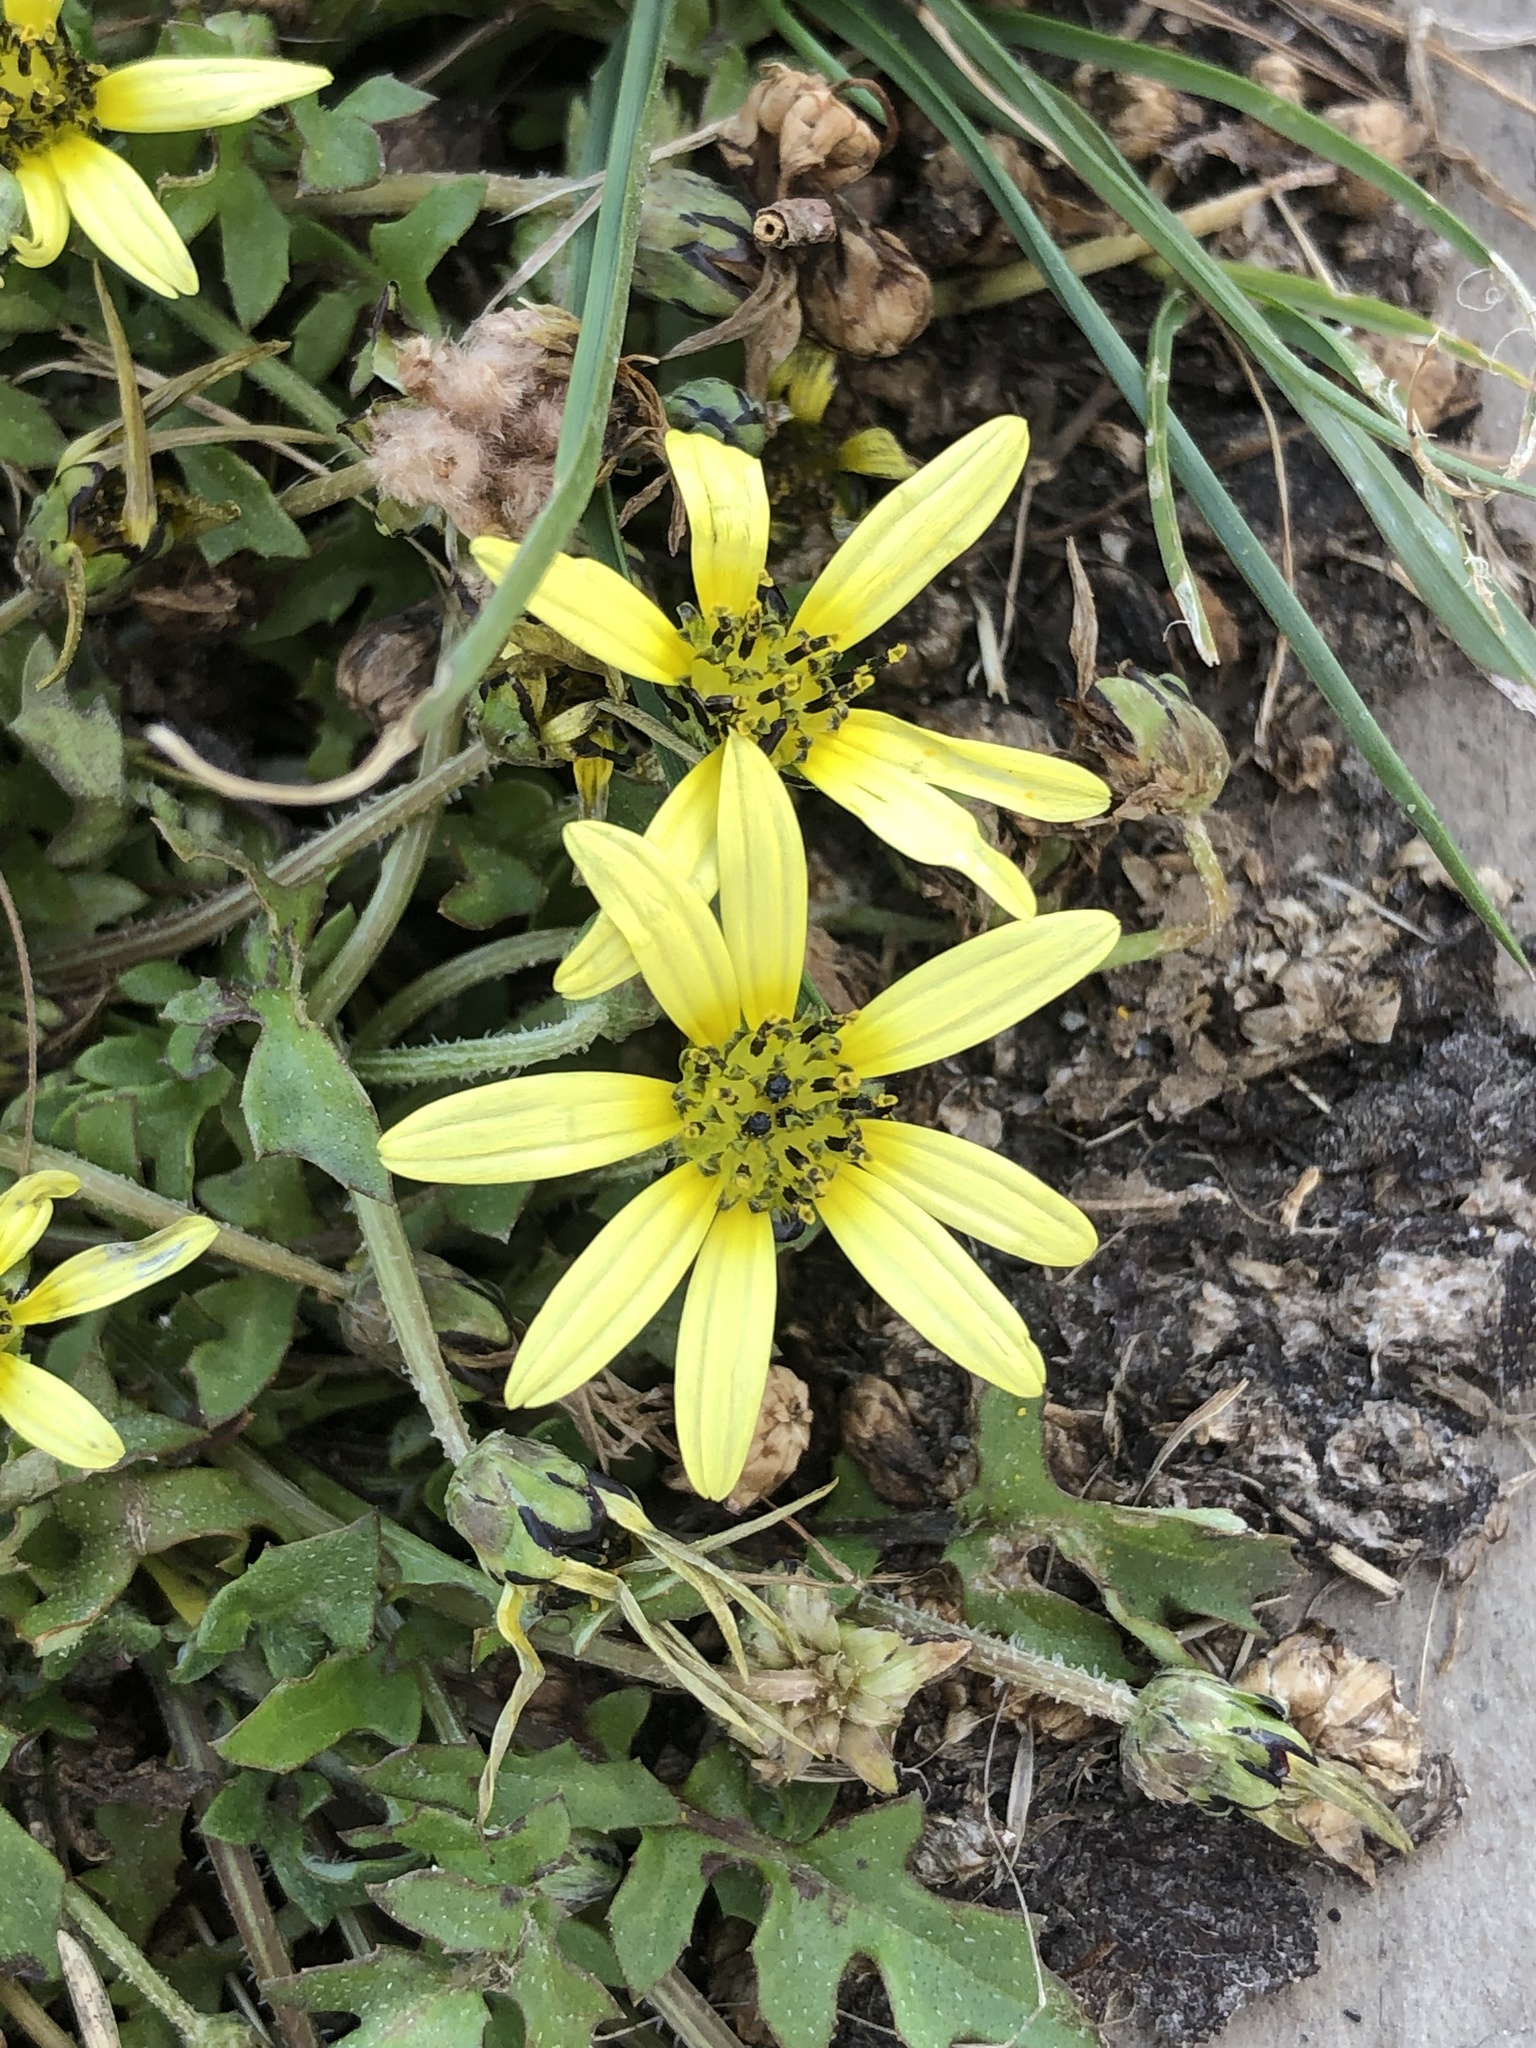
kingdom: Plantae
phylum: Tracheophyta
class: Magnoliopsida
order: Asterales
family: Asteraceae
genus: Arctotheca
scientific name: Arctotheca calendula
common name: Capeweed
